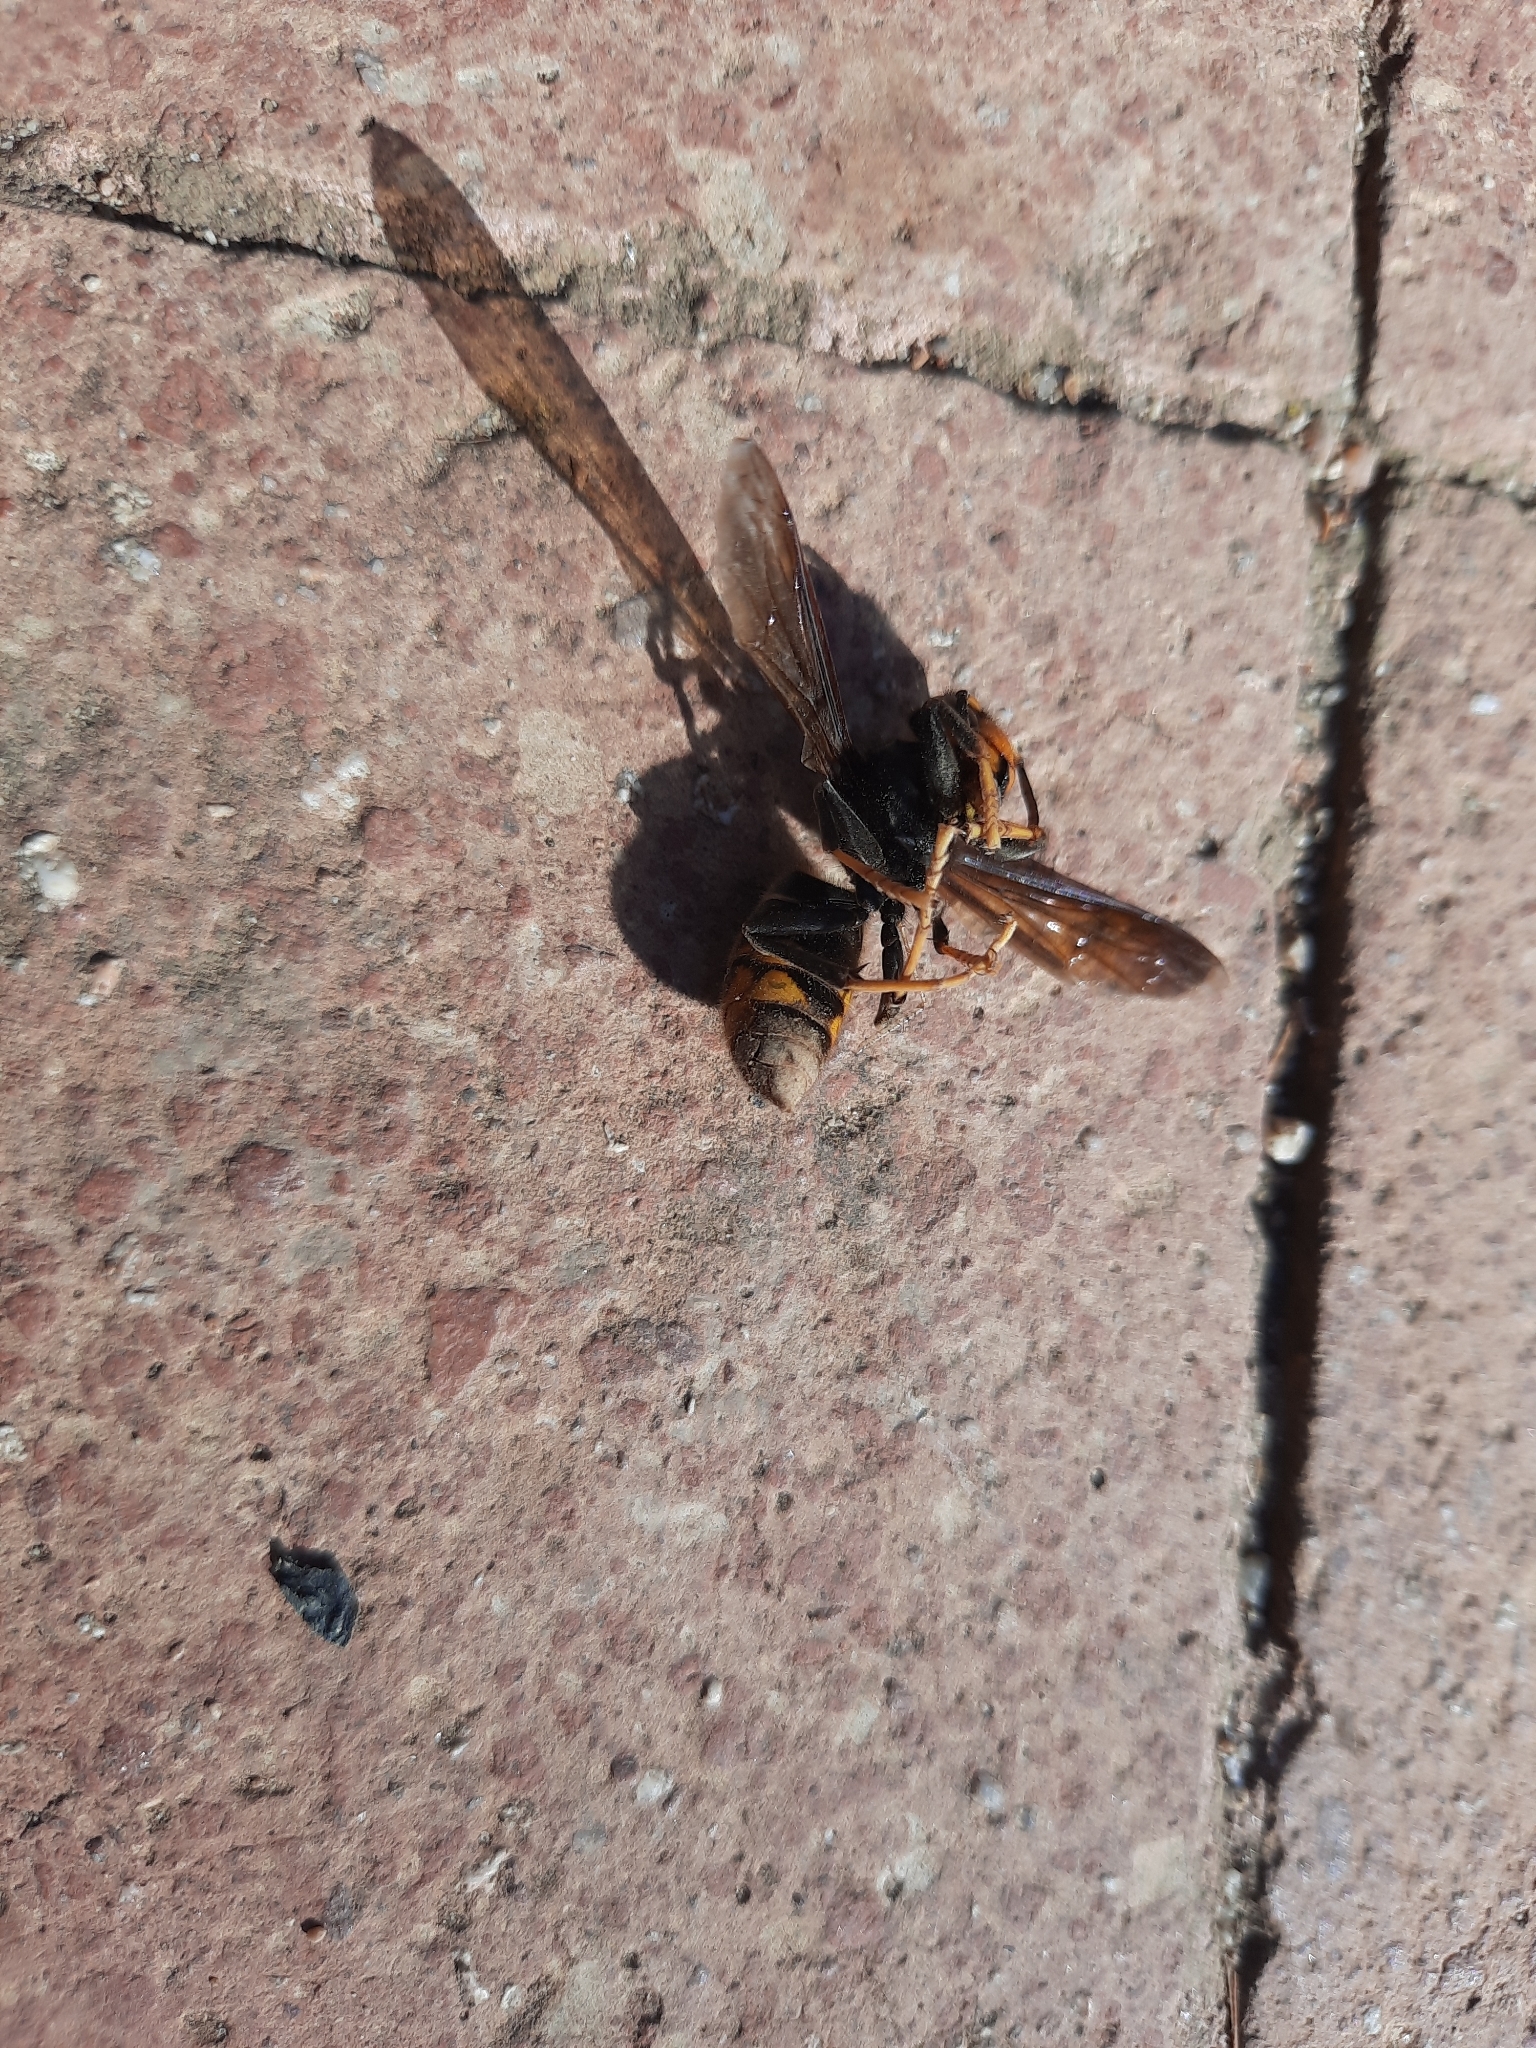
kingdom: Animalia
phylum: Arthropoda
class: Insecta
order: Hymenoptera
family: Vespidae
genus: Vespa
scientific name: Vespa velutina
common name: Asian hornet
